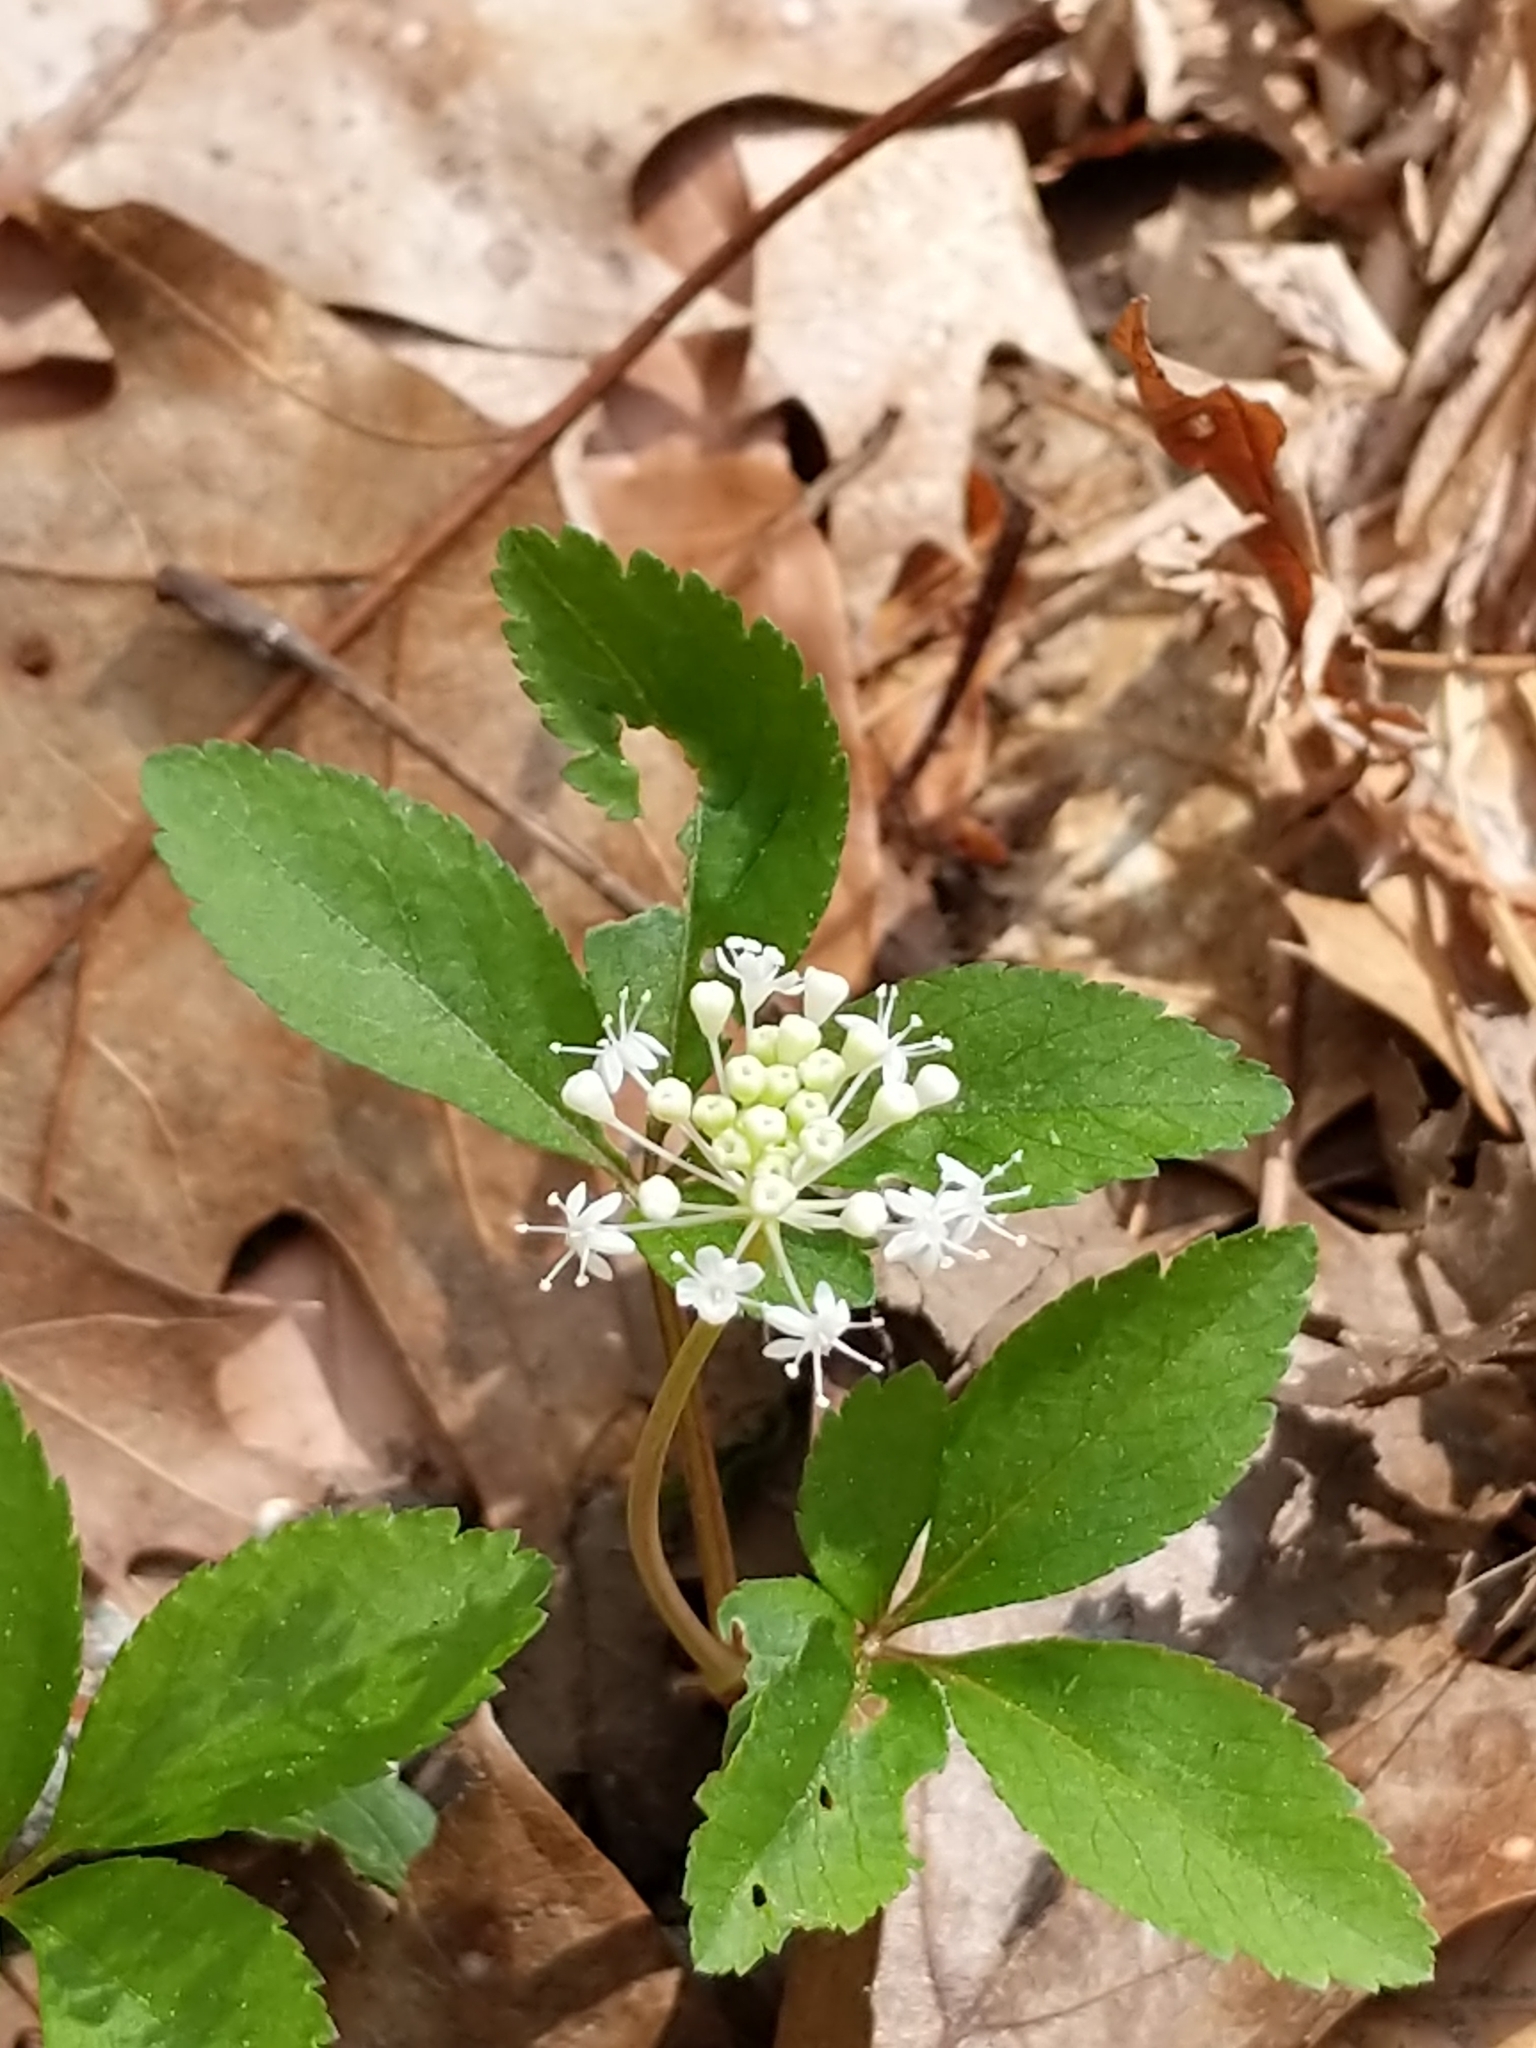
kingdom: Plantae
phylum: Tracheophyta
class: Magnoliopsida
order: Apiales
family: Araliaceae
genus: Panax
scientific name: Panax trifolius
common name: Dwarf ginseng
